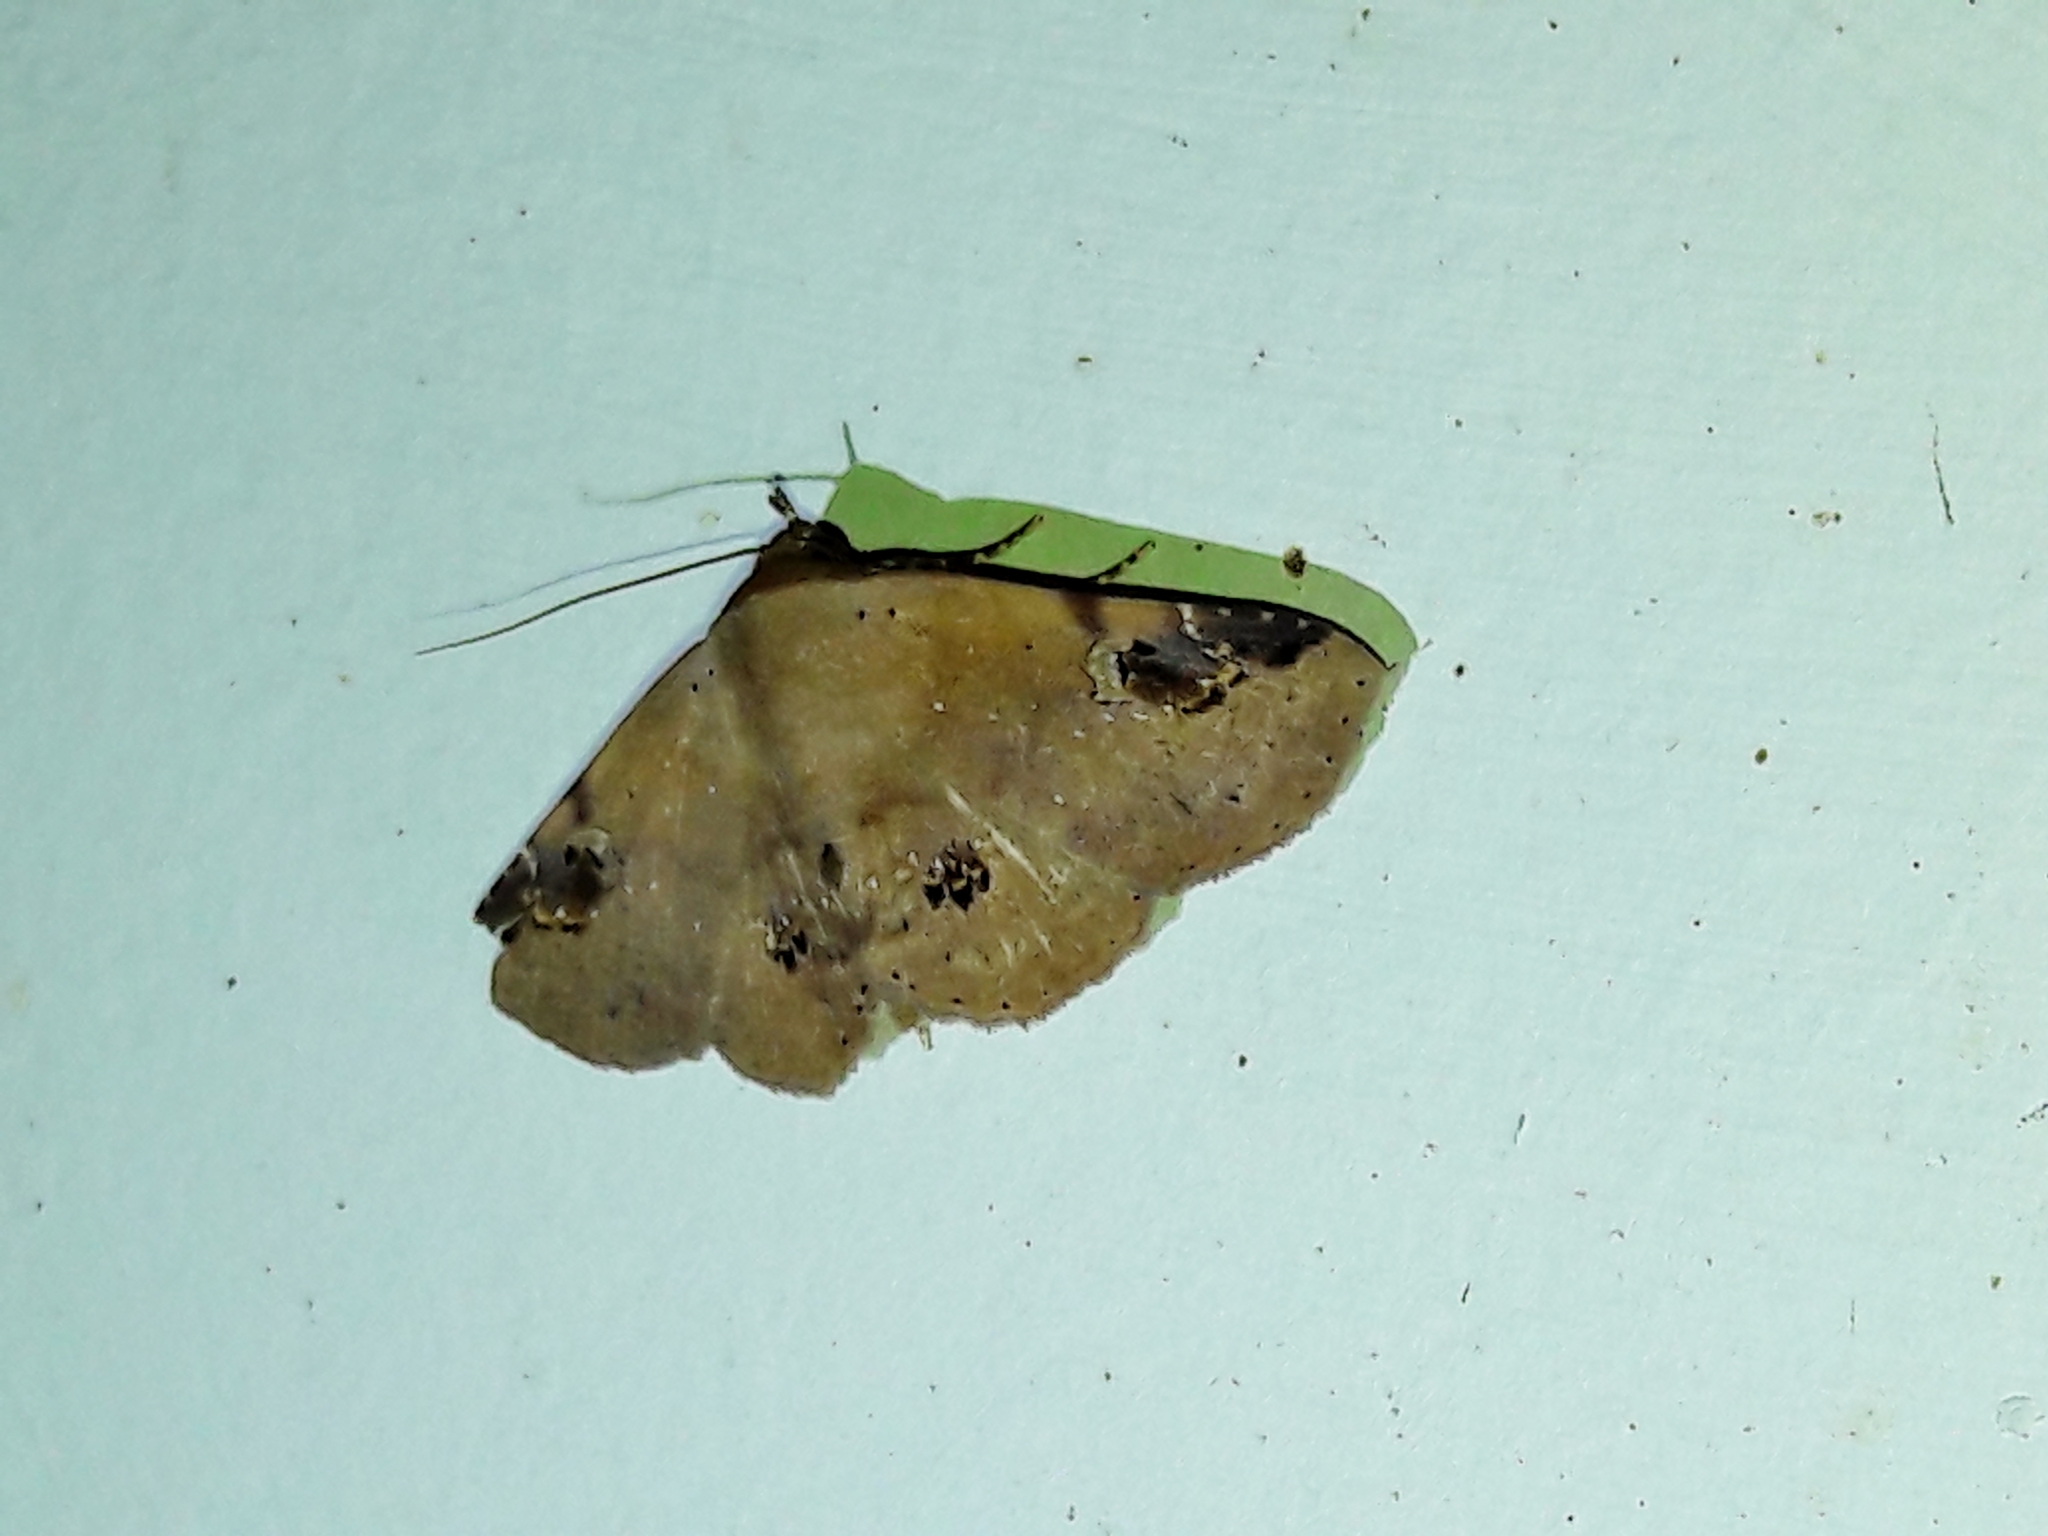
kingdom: Animalia
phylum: Arthropoda
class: Insecta
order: Lepidoptera
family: Erebidae
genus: Massala
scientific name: Massala abdara
